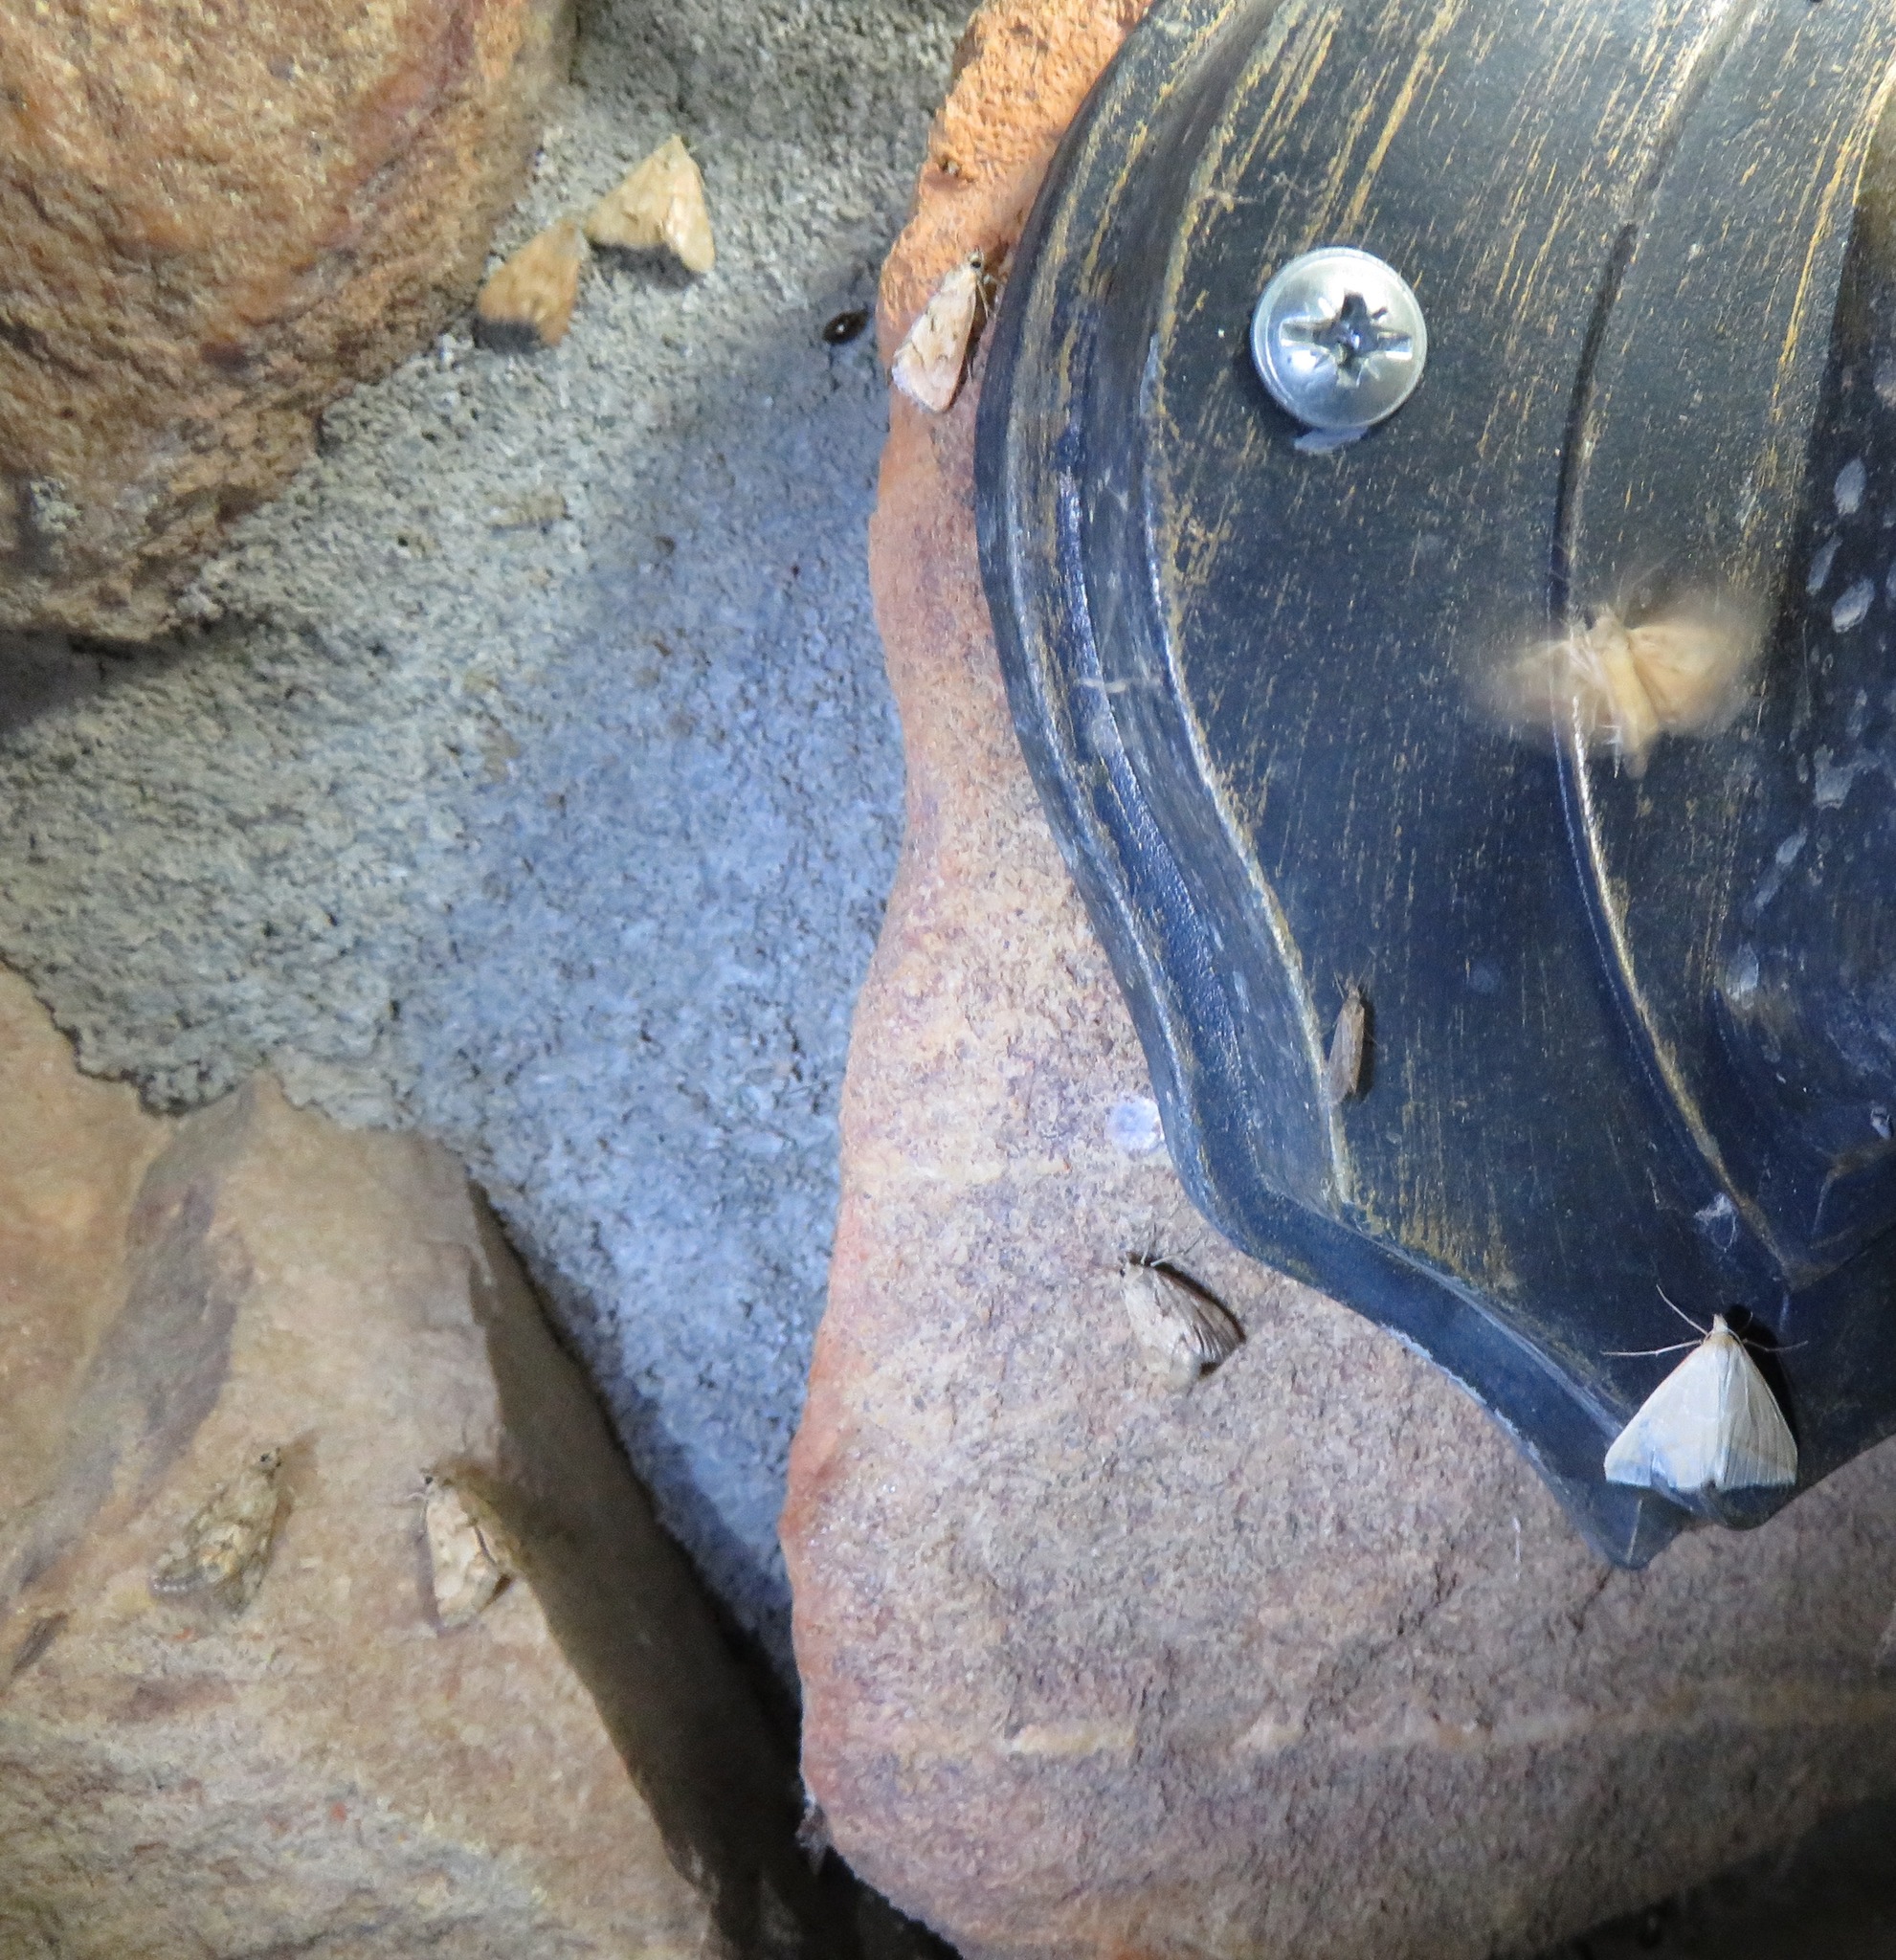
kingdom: Animalia
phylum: Arthropoda
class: Insecta
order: Lepidoptera
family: Geometridae
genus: Rhodometra
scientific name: Rhodometra sacraria
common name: Vestal
